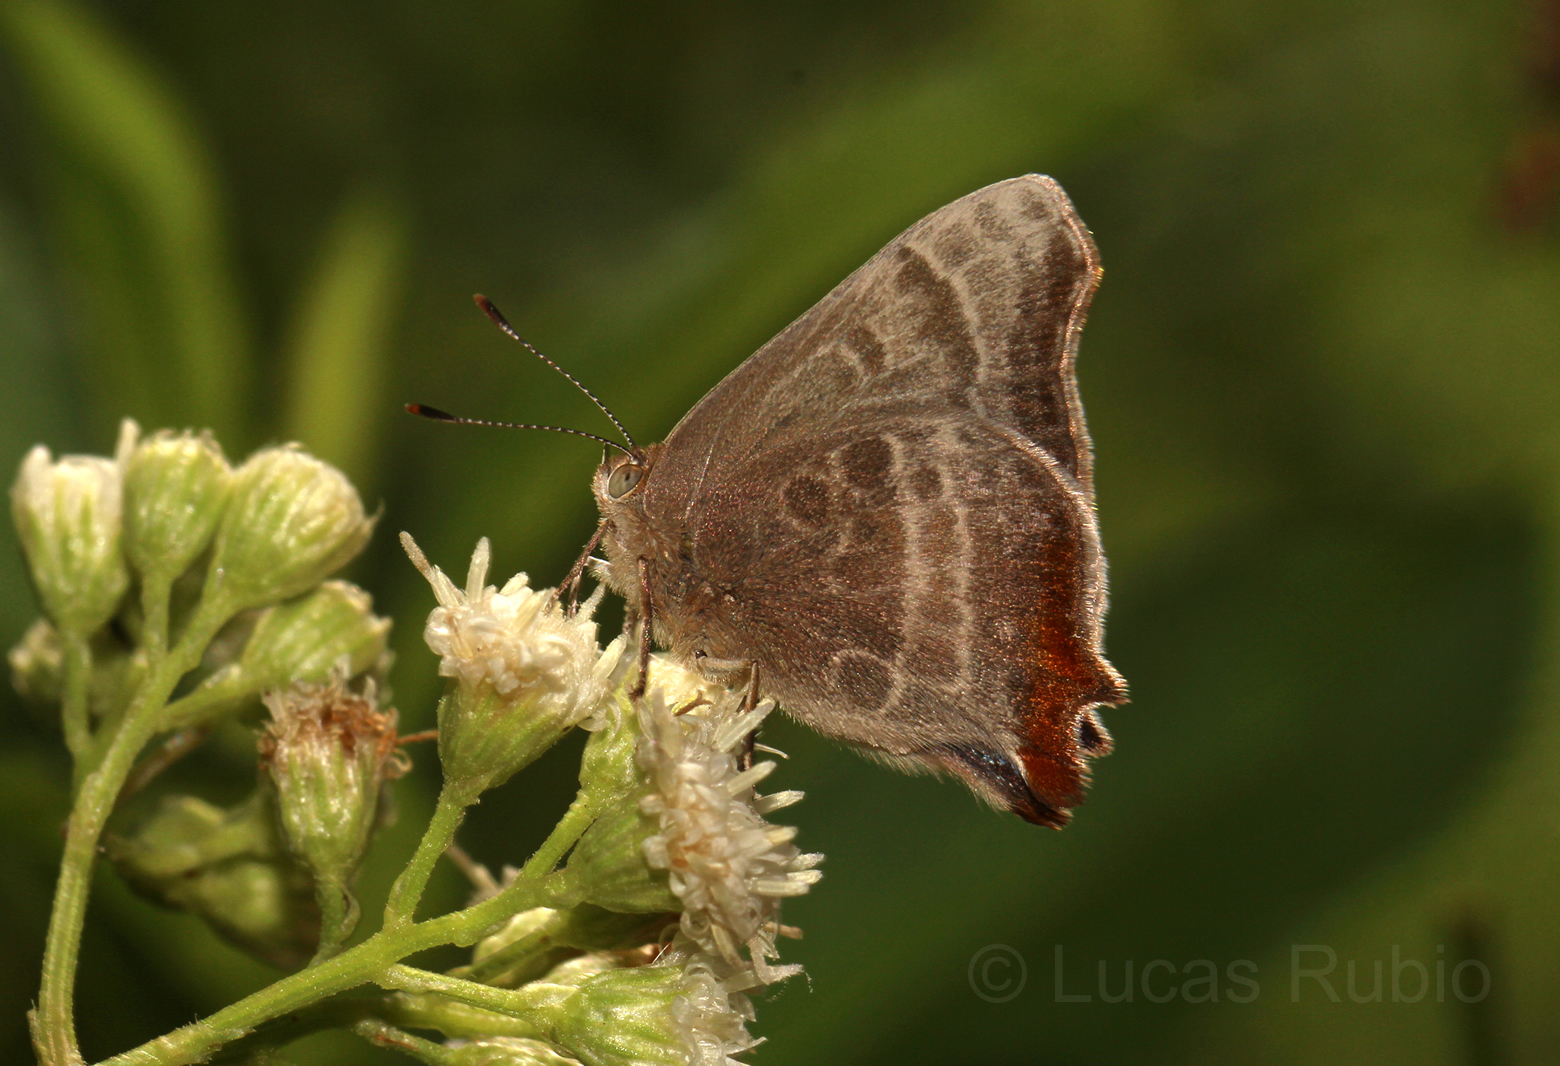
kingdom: Animalia
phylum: Arthropoda
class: Insecta
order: Lepidoptera
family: Lycaenidae
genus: Arawacus
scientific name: Arawacus
